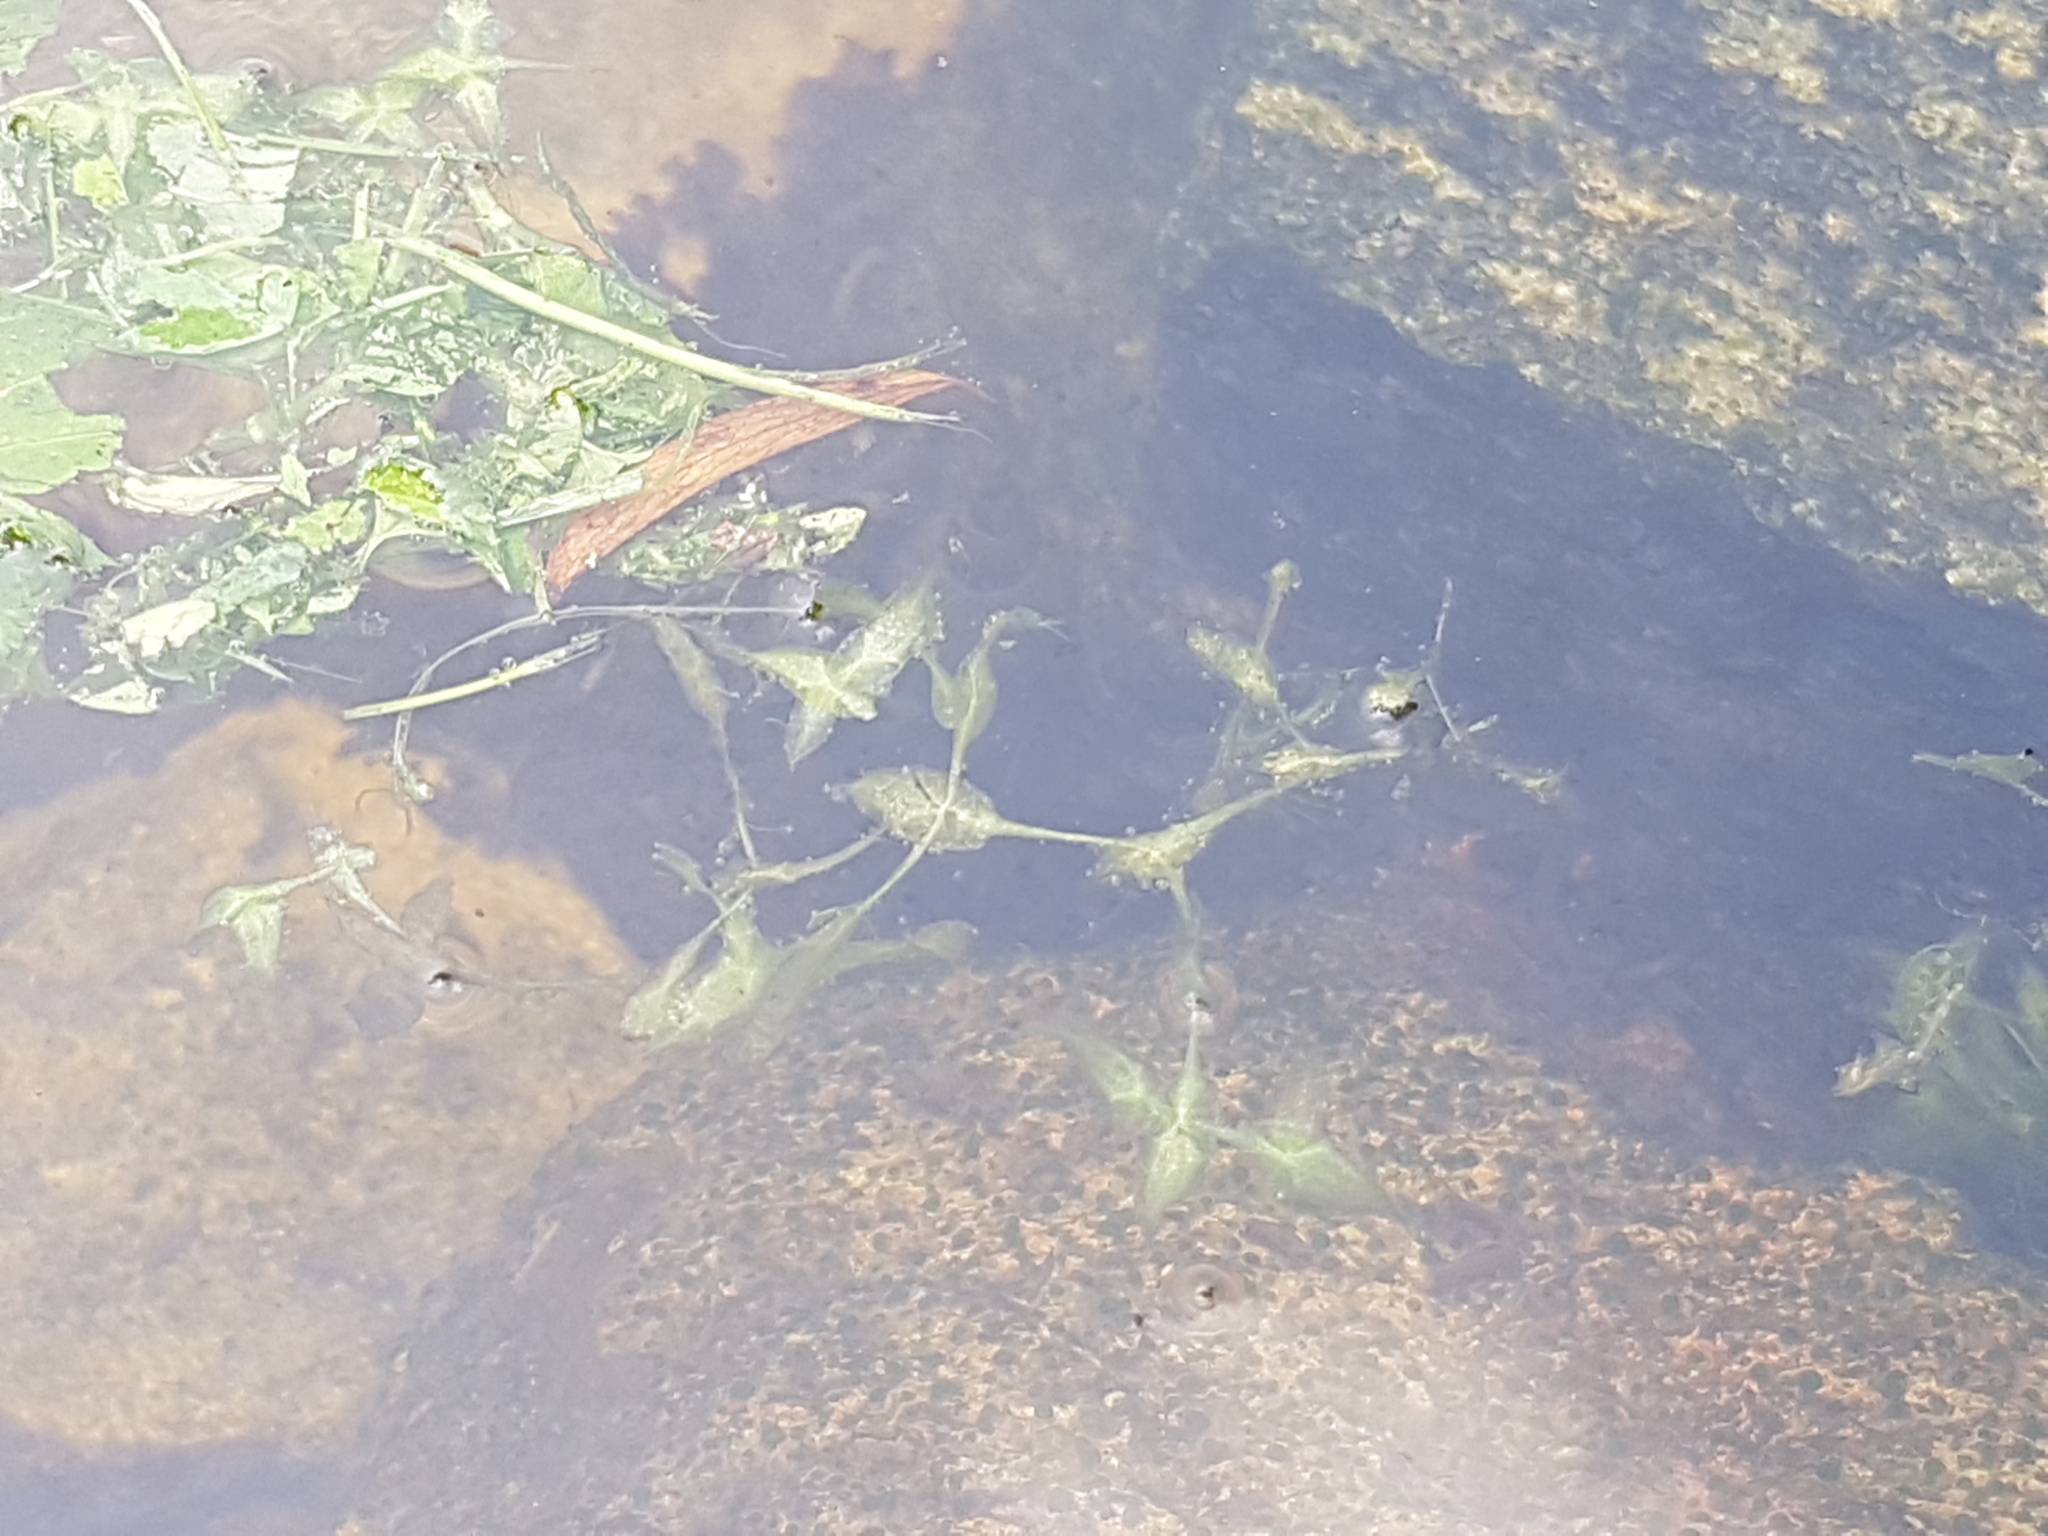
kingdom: Plantae
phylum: Tracheophyta
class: Liliopsida
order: Alismatales
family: Araceae
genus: Lemna
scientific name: Lemna trisulca
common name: Ivy-leaved duckweed
